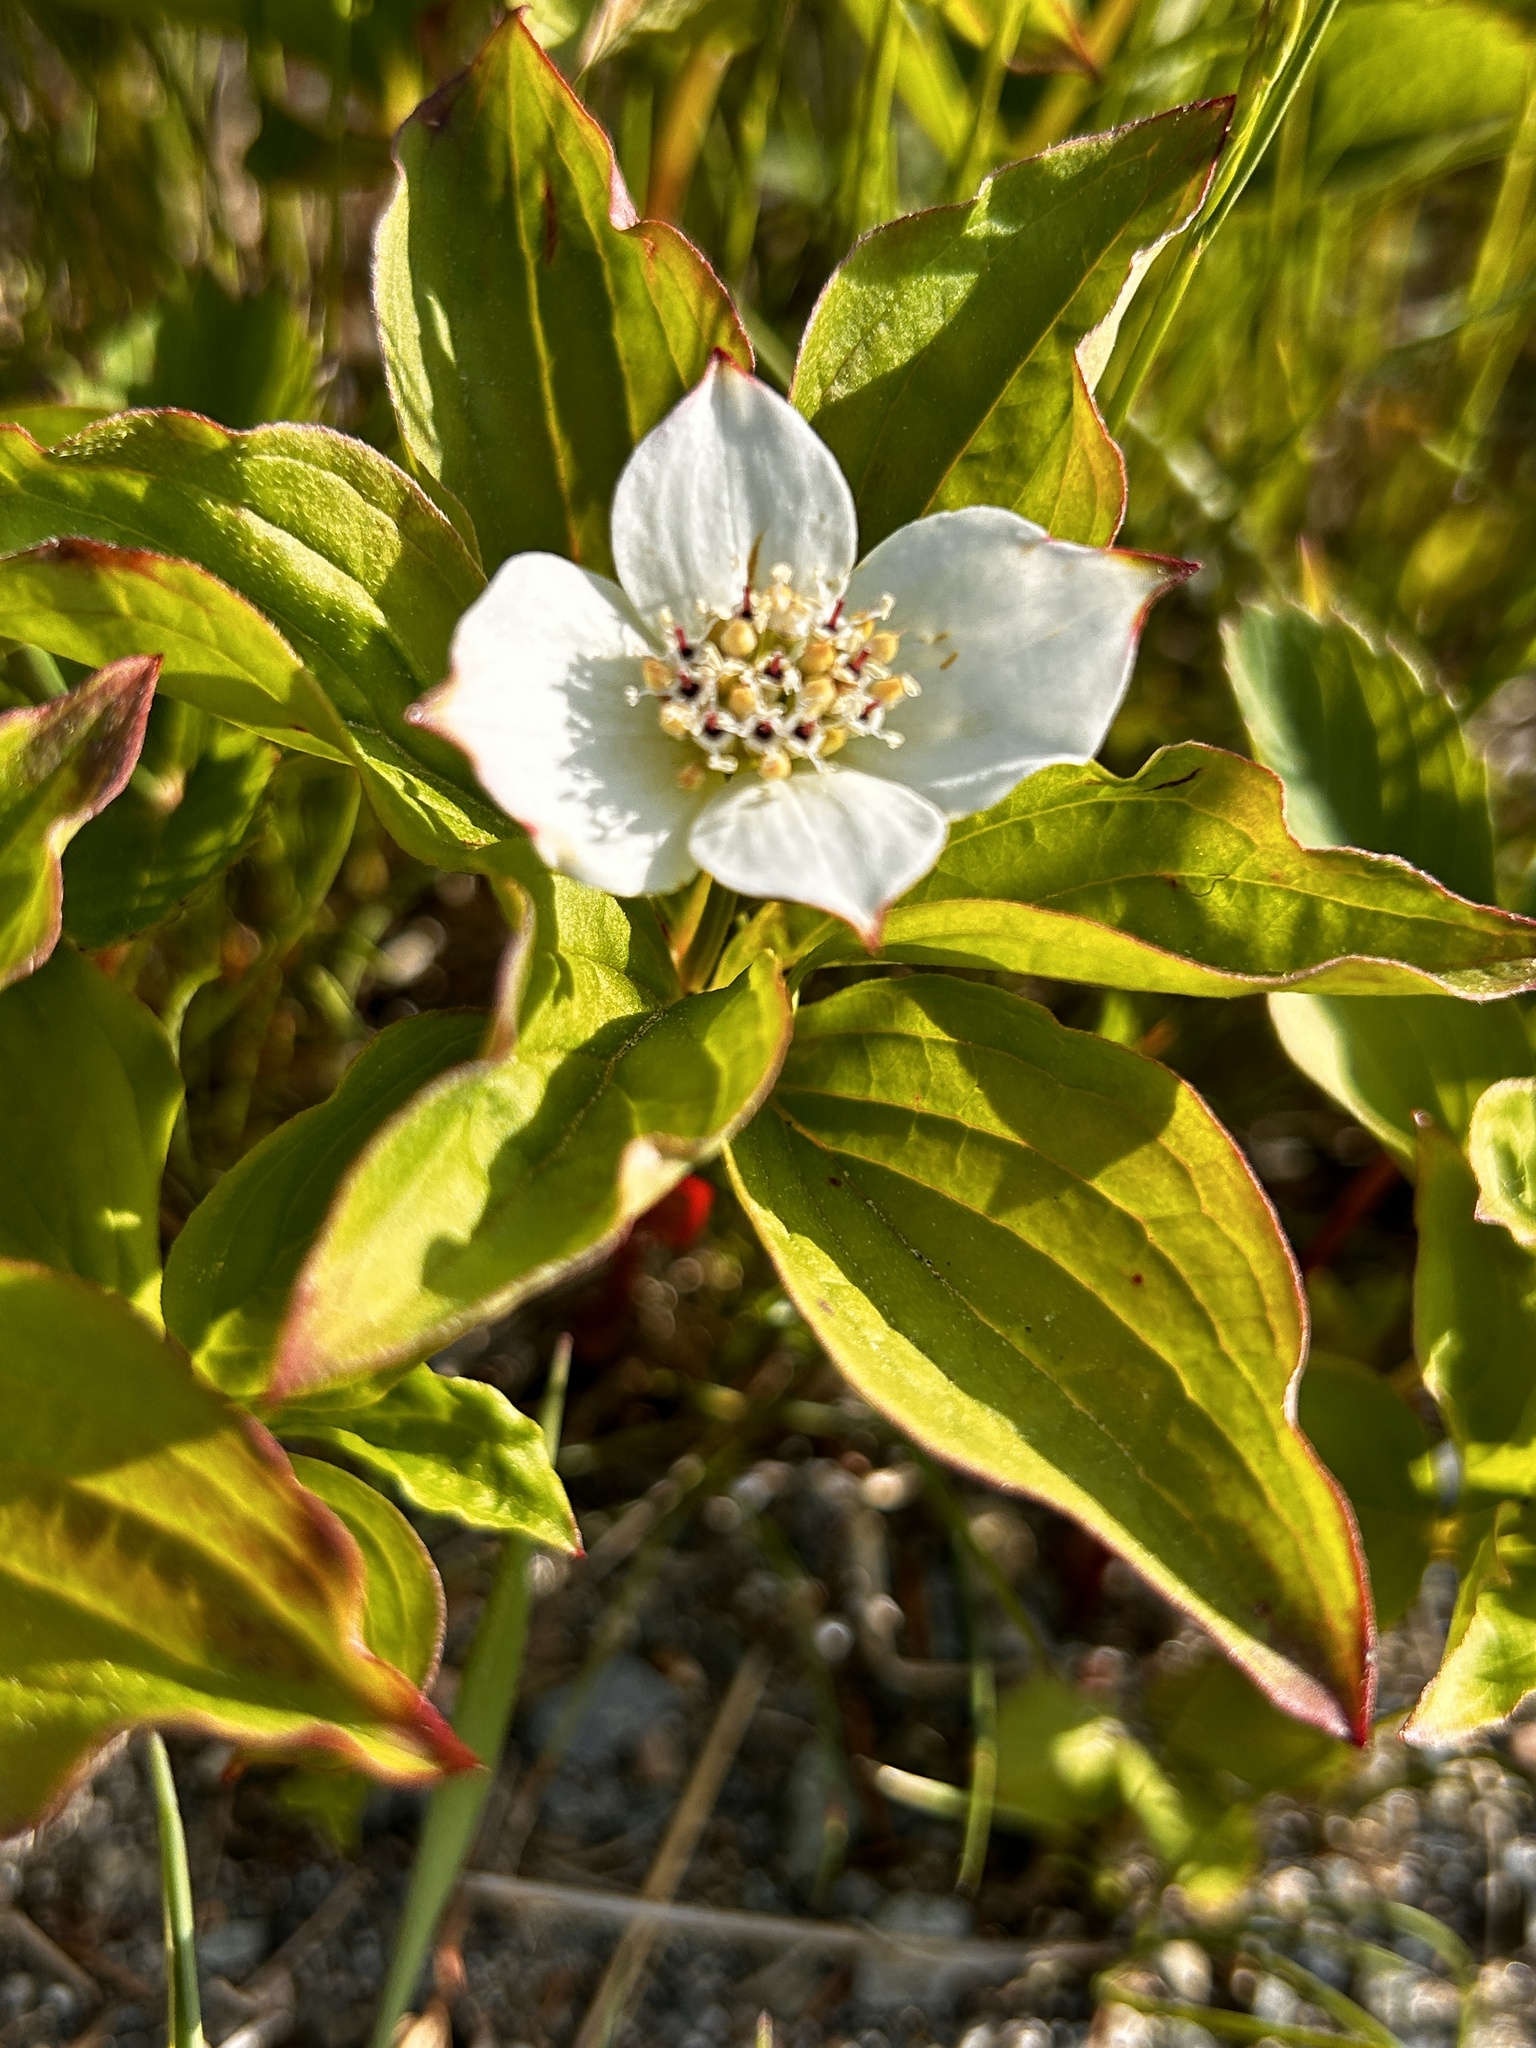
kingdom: Plantae
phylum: Tracheophyta
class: Magnoliopsida
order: Cornales
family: Cornaceae
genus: Cornus
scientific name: Cornus canadensis
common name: Creeping dogwood
